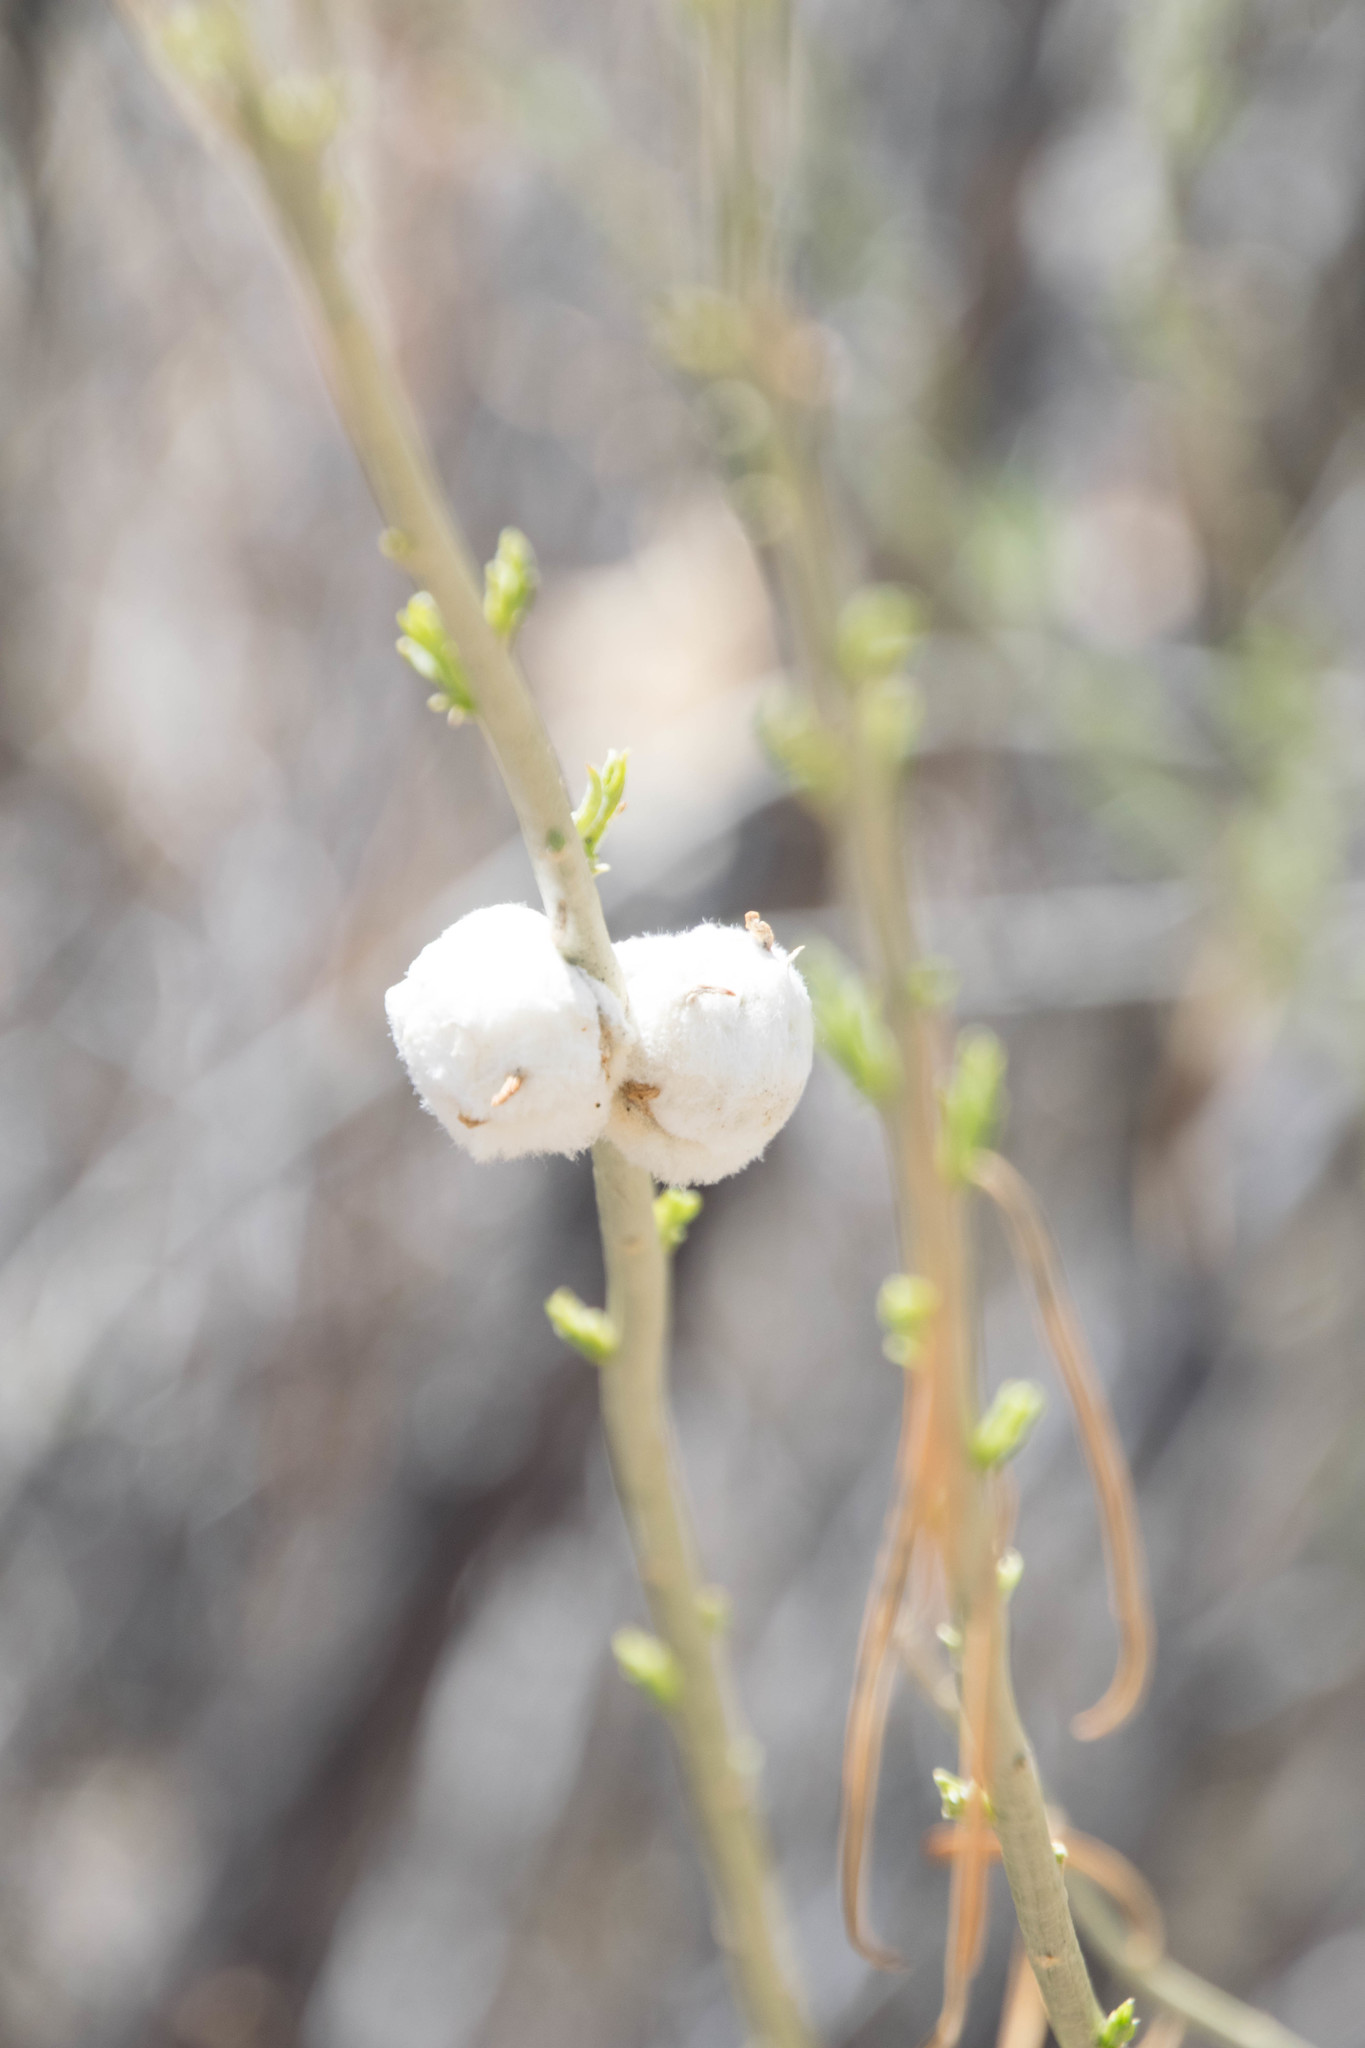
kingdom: Animalia
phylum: Arthropoda
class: Insecta
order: Diptera
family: Tephritidae
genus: Aciurina
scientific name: Aciurina bigeloviae
